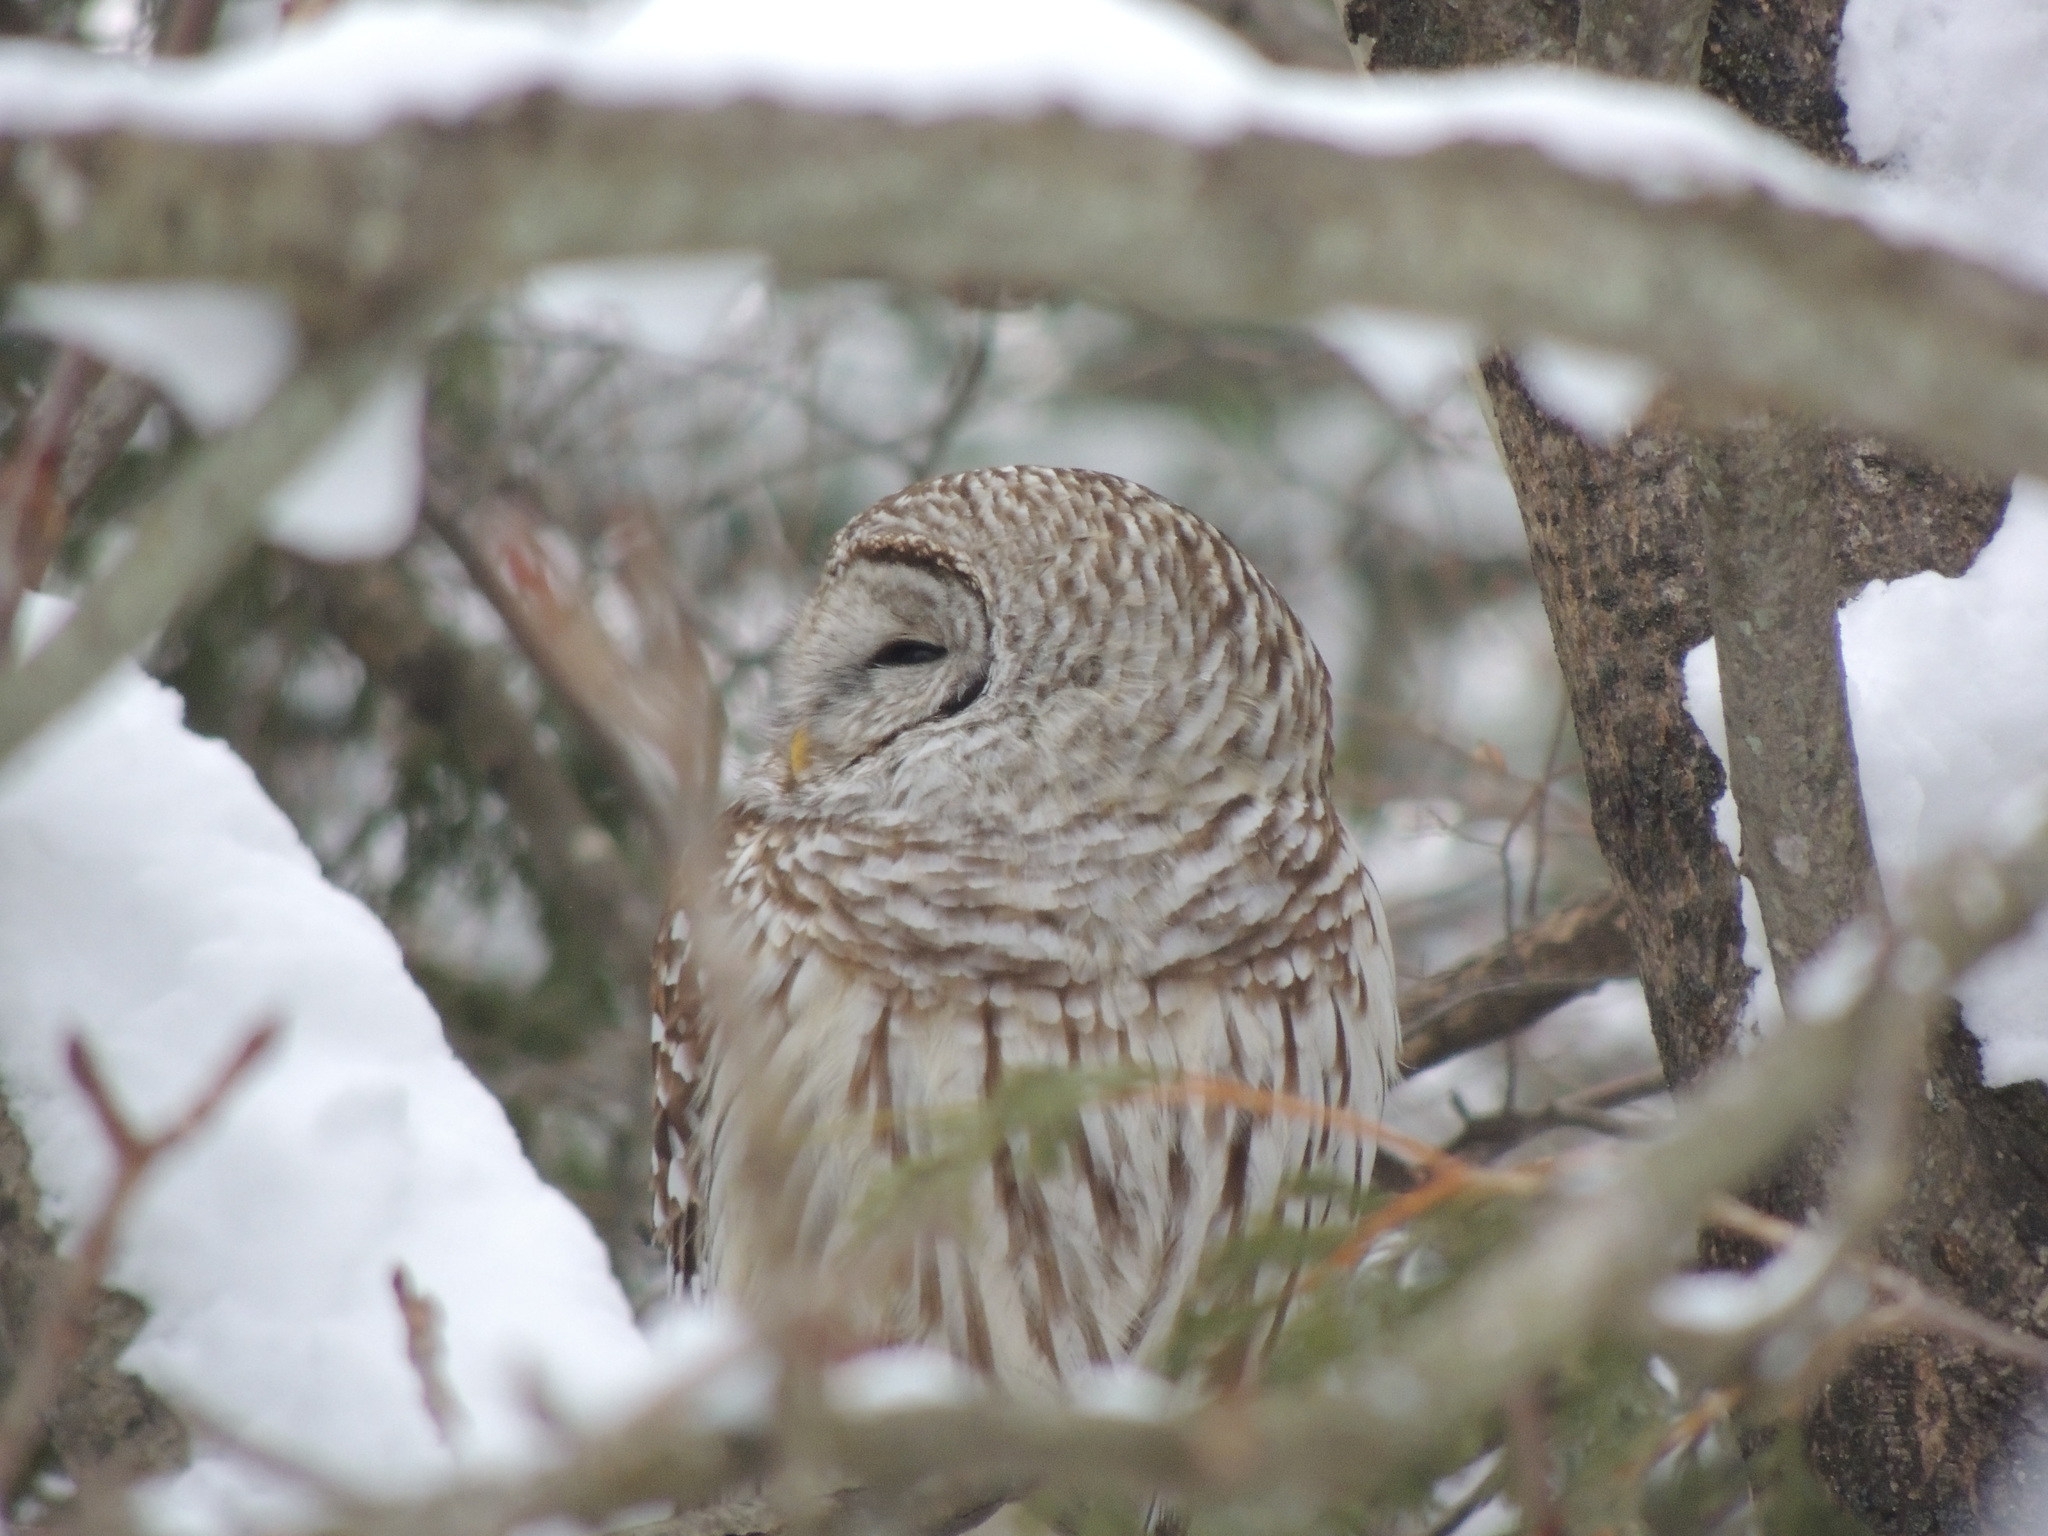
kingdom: Animalia
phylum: Chordata
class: Aves
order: Strigiformes
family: Strigidae
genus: Strix
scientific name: Strix varia
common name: Barred owl
